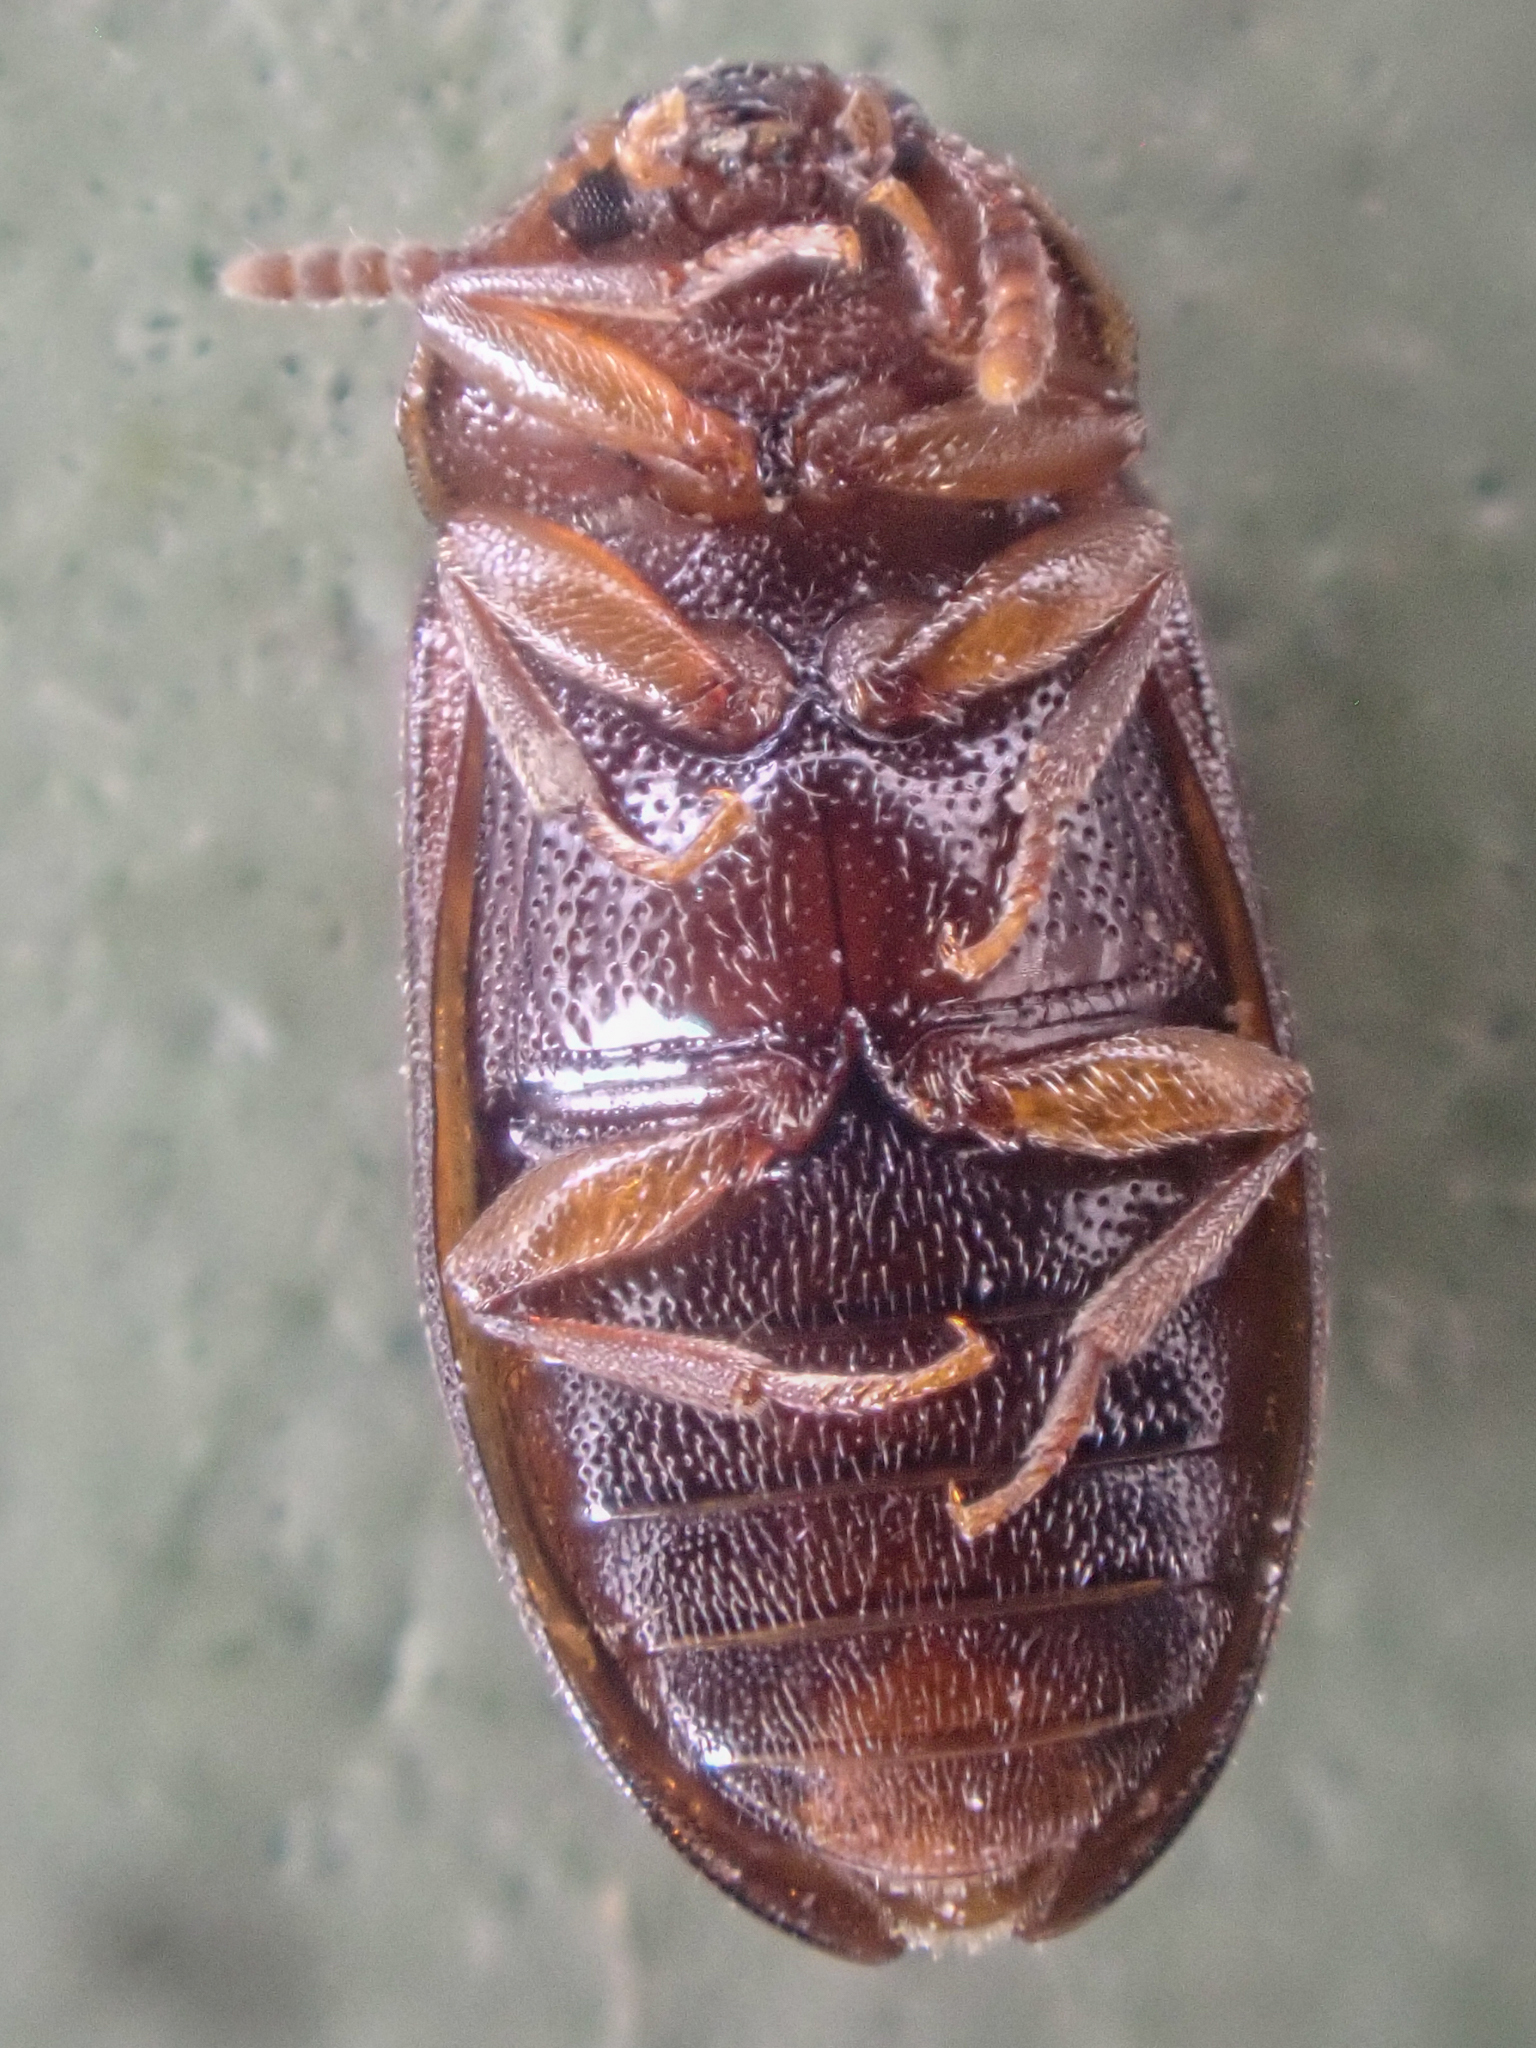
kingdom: Animalia
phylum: Arthropoda
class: Insecta
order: Coleoptera
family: Tetratomidae
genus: Tetratoma
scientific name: Tetratoma concolor
